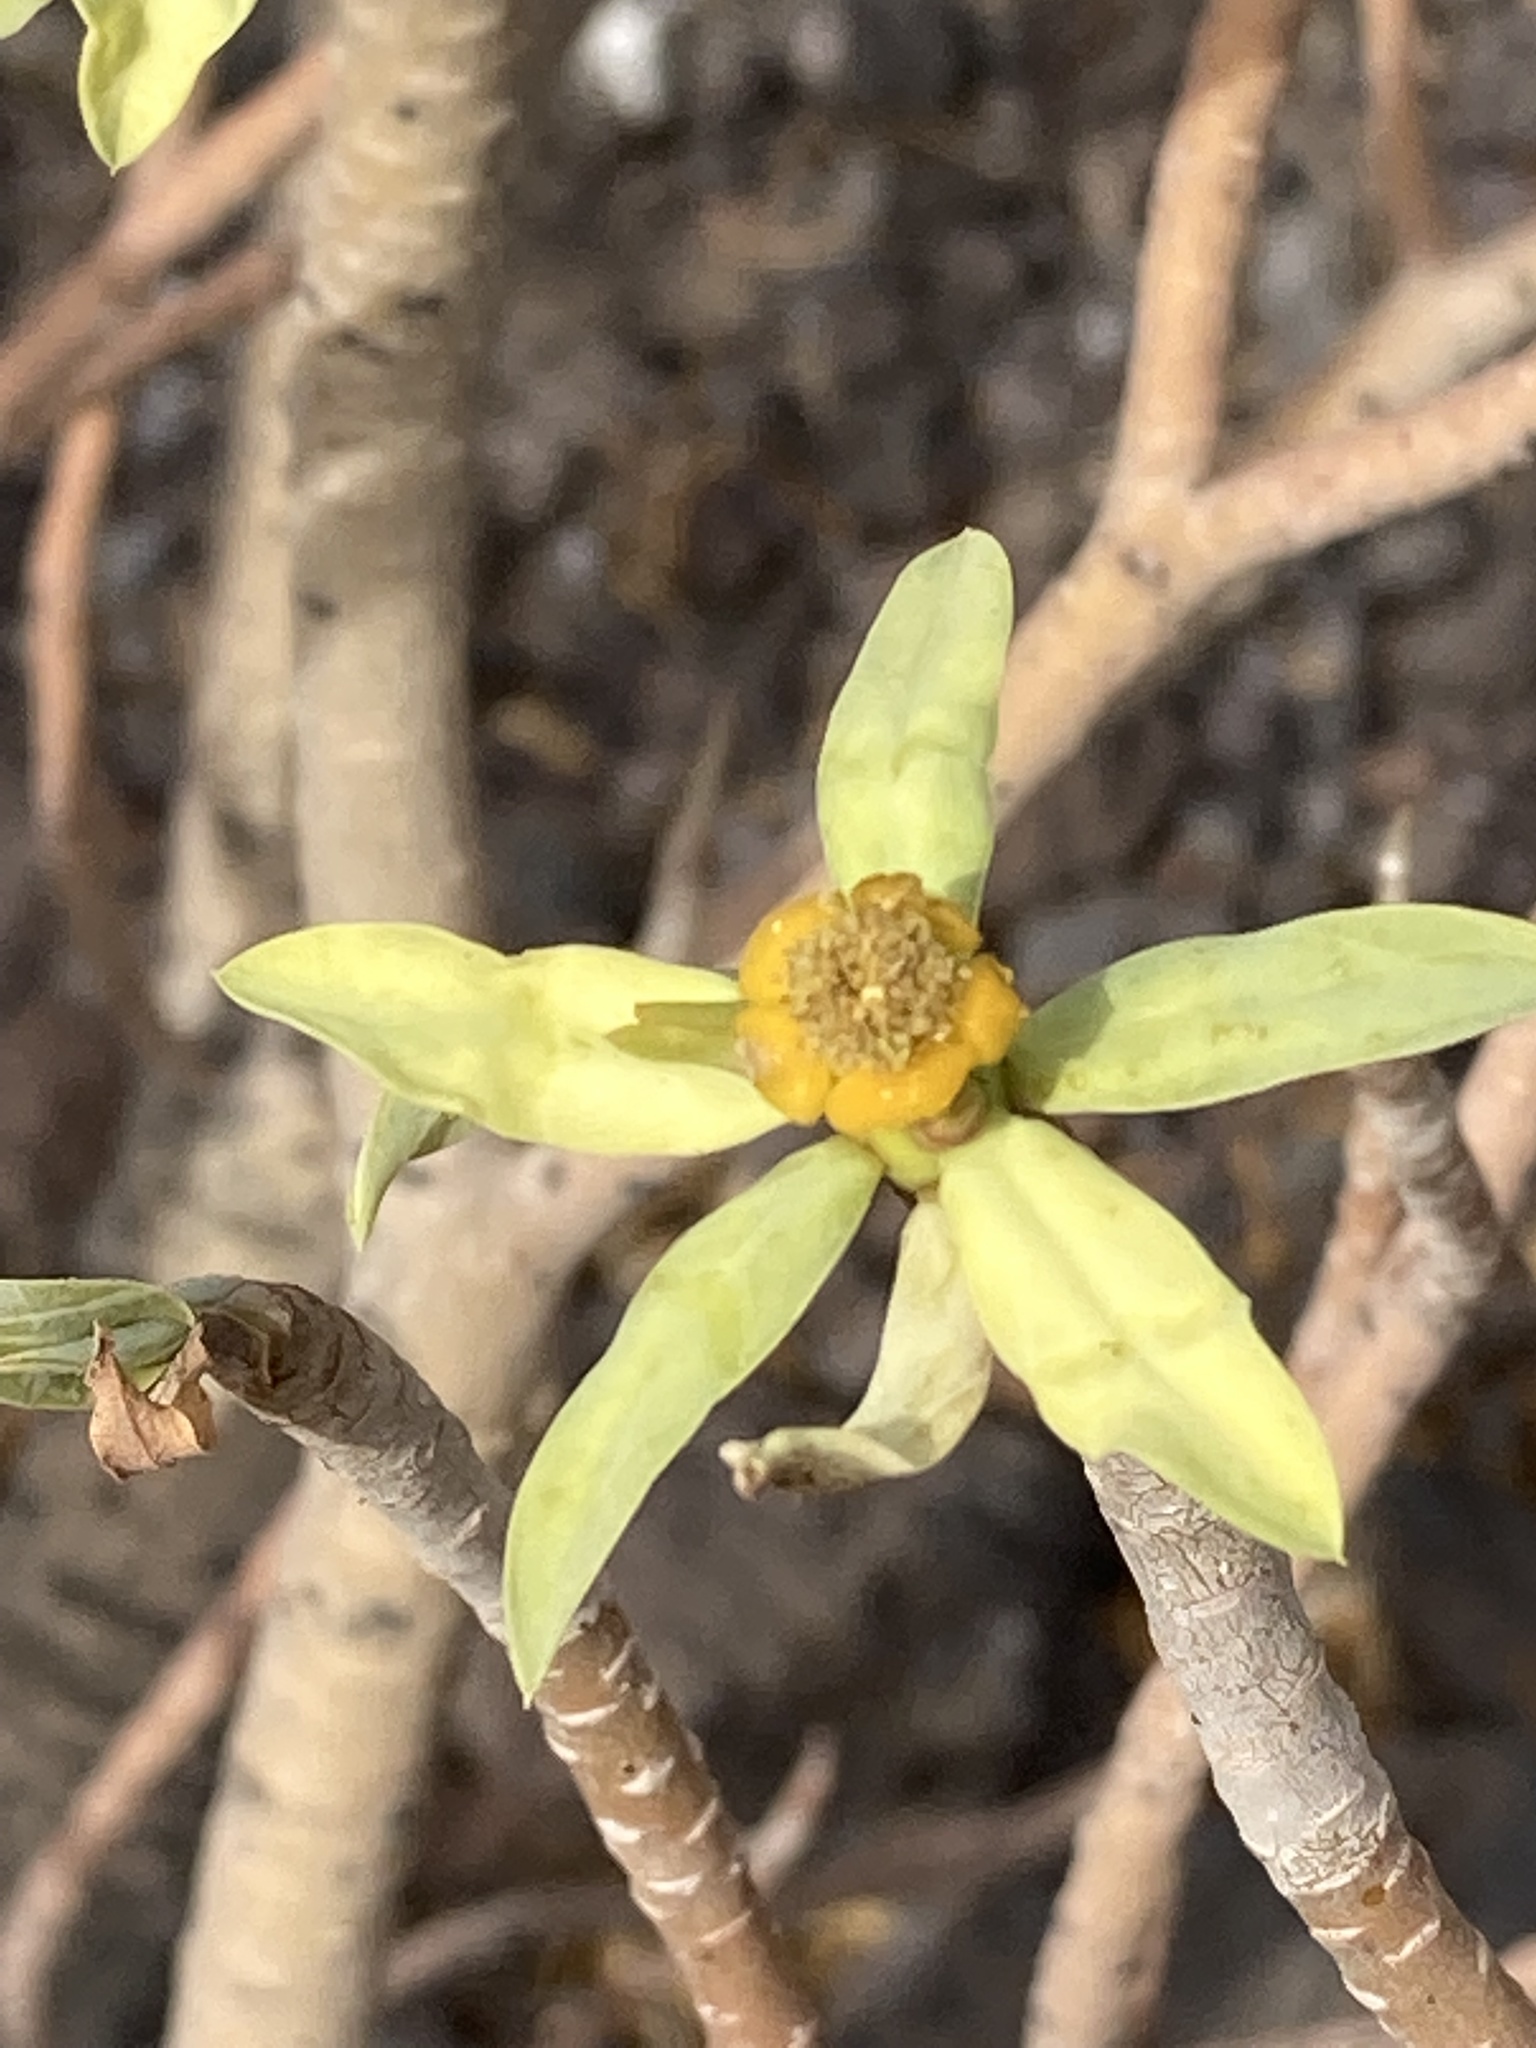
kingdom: Plantae
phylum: Tracheophyta
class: Magnoliopsida
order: Malpighiales
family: Euphorbiaceae
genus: Euphorbia
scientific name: Euphorbia balsamifera
